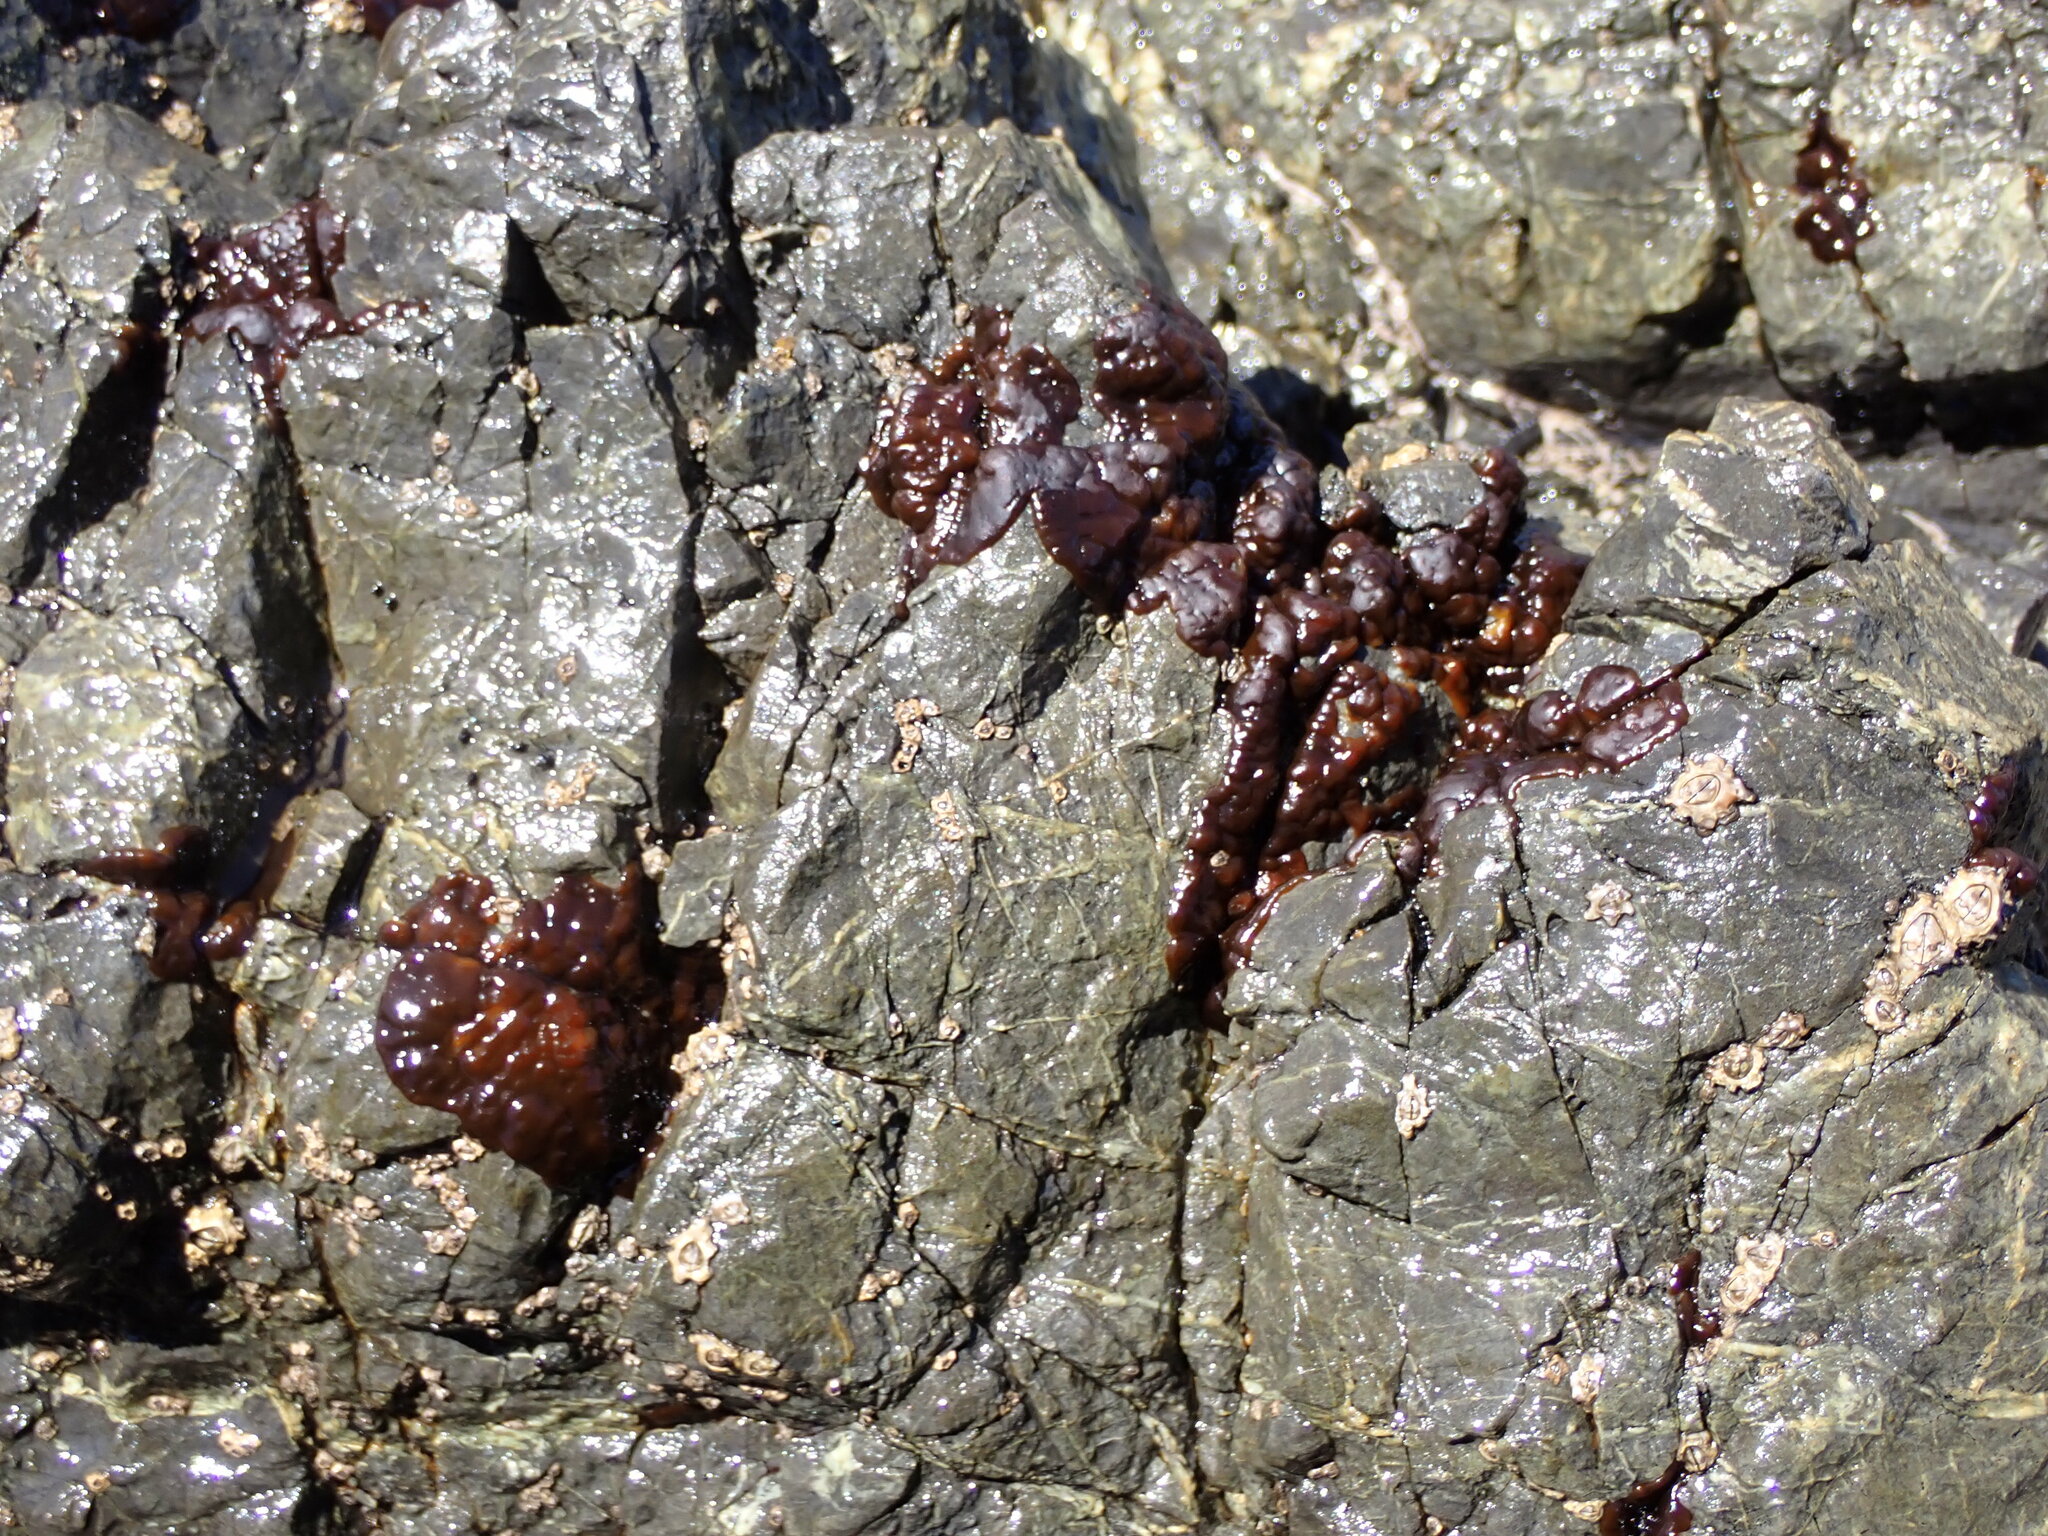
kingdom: Plantae
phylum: Rhodophyta
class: Florideophyceae
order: Hildenbrandiales
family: Hildenbrandiaceae
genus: Apophlaea
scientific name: Apophlaea
